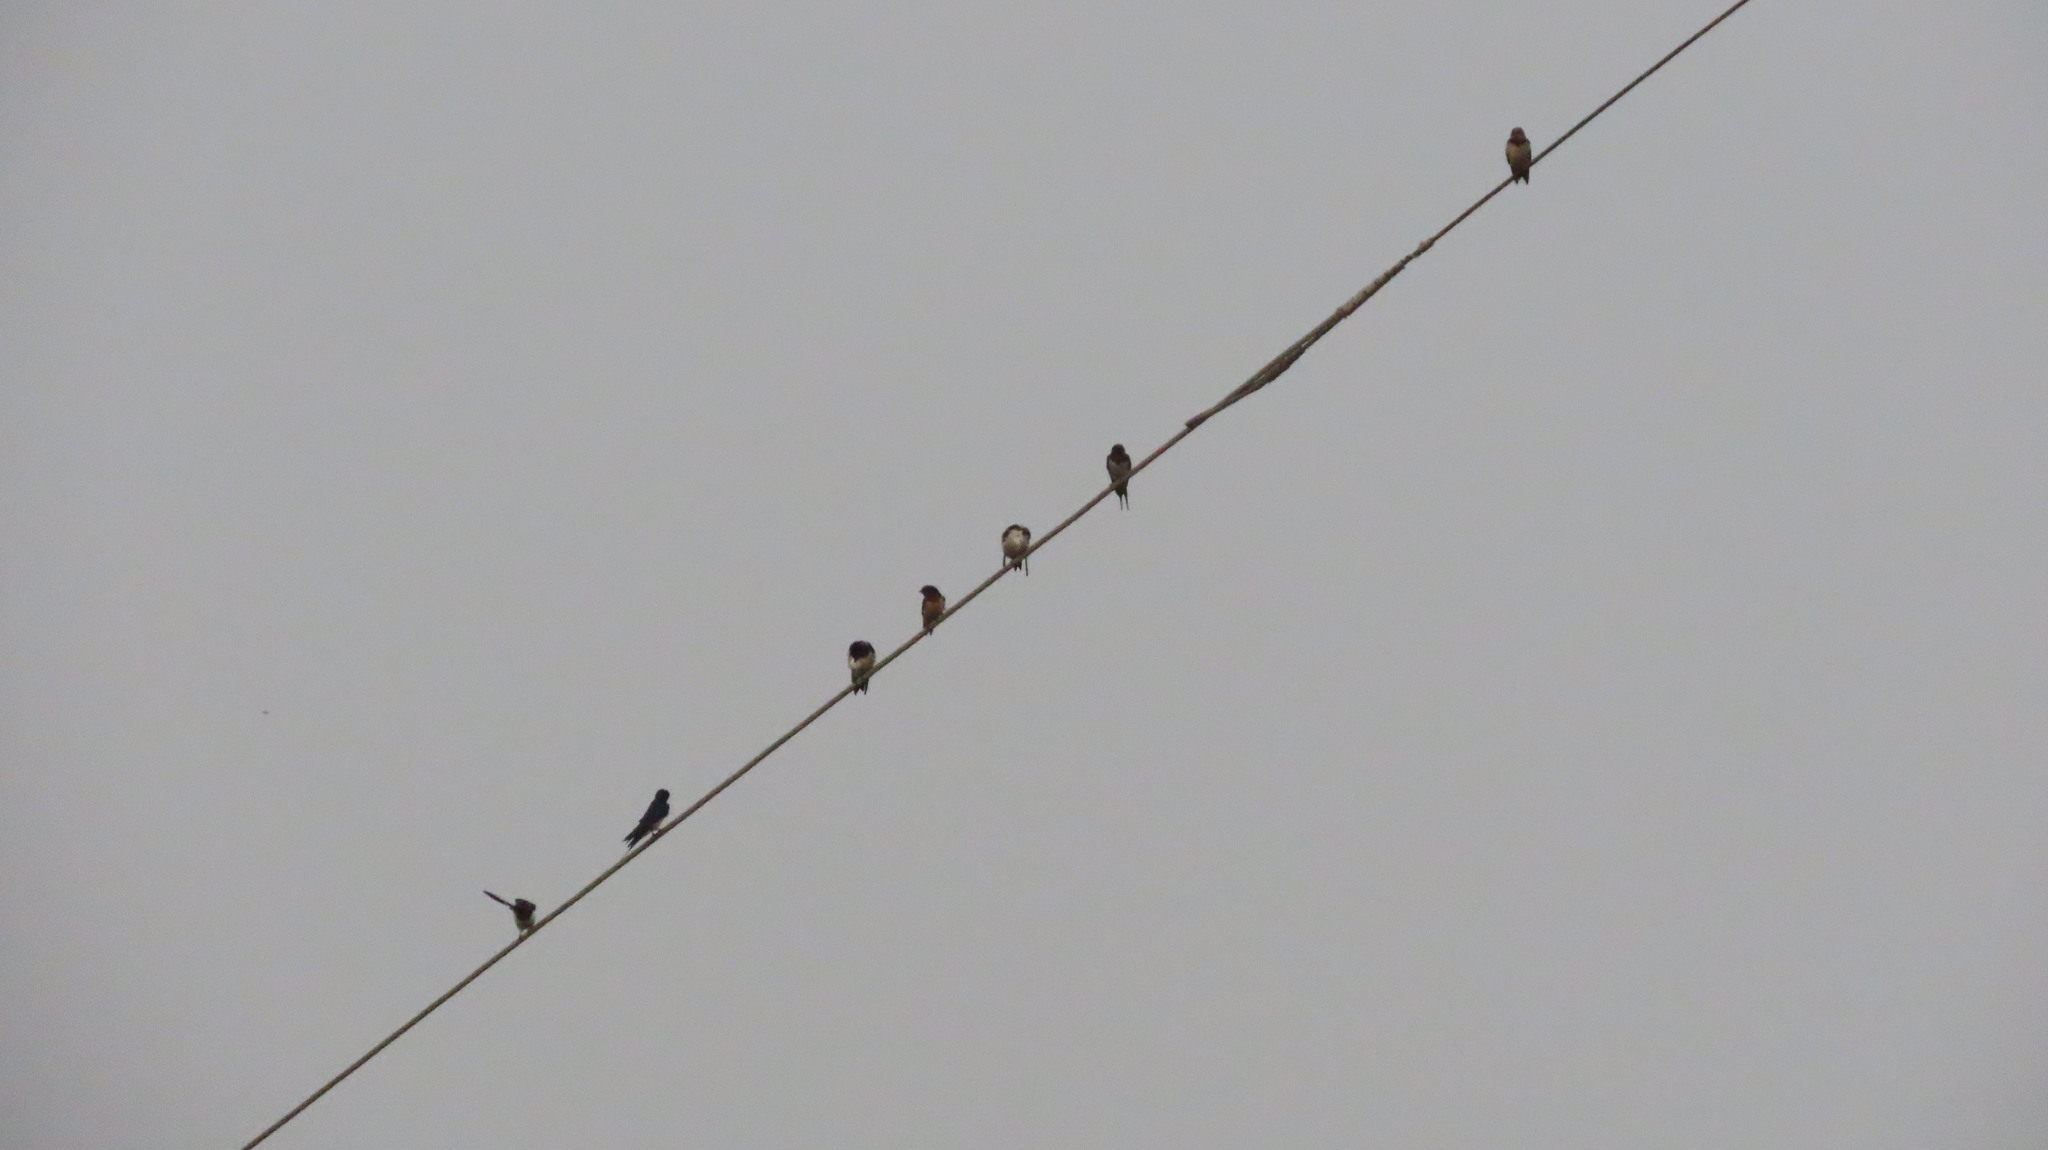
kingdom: Animalia
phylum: Chordata
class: Aves
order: Passeriformes
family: Hirundinidae
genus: Hirundo
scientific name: Hirundo rustica
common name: Barn swallow
